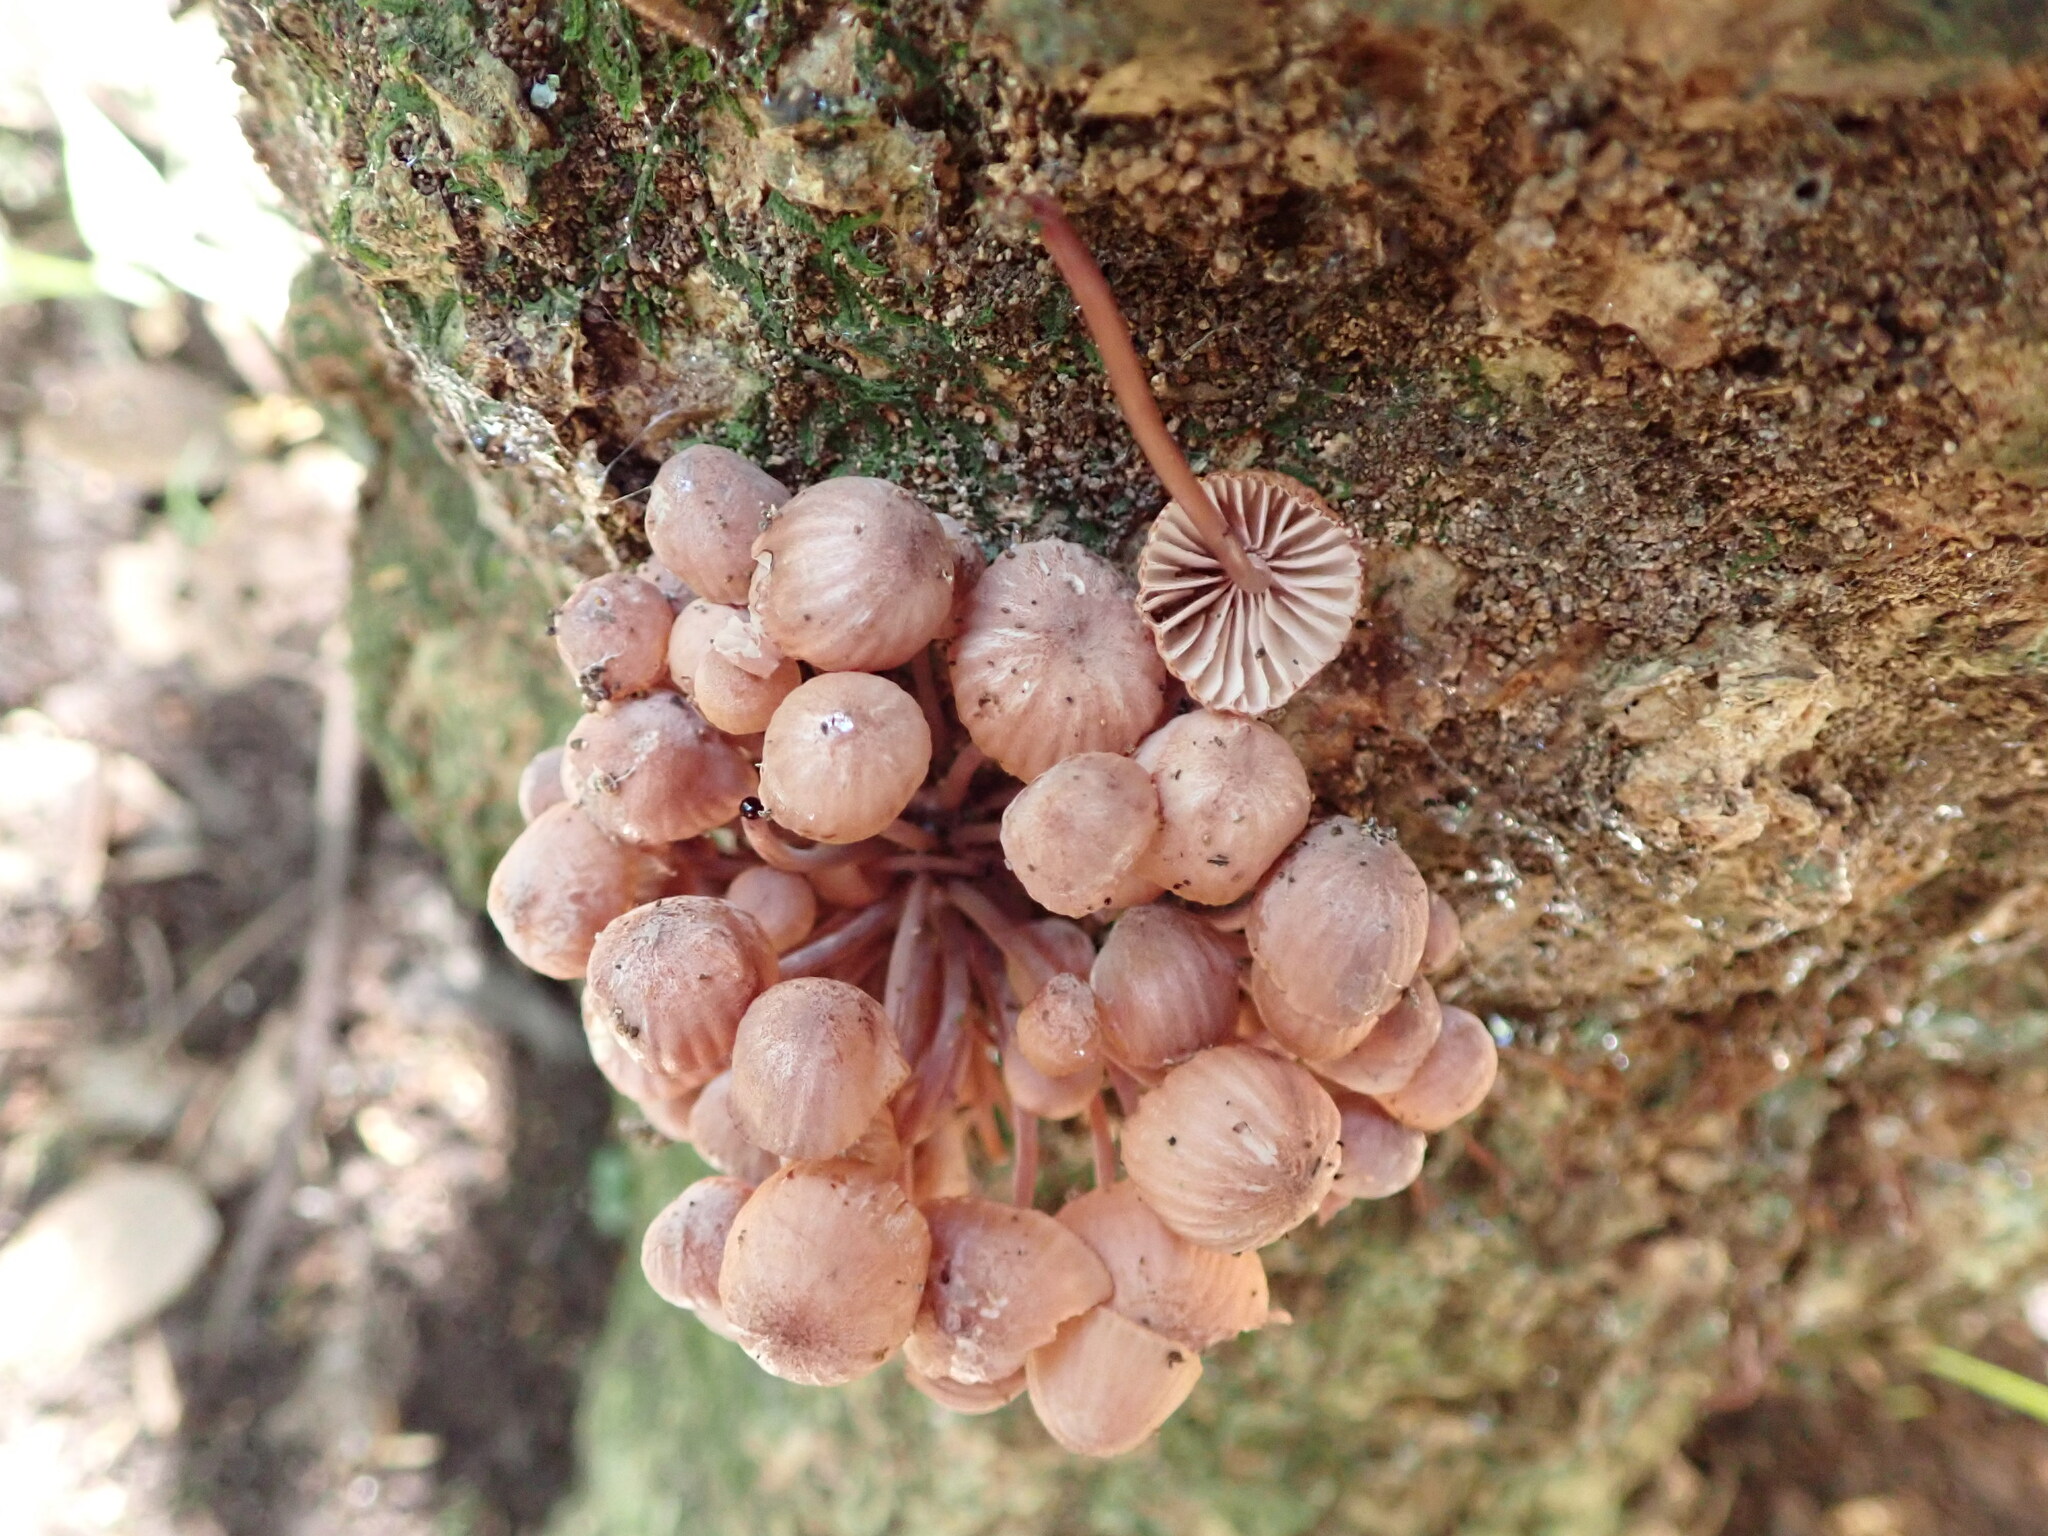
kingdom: Fungi
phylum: Basidiomycota
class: Agaricomycetes
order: Agaricales
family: Mycenaceae
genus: Mycena
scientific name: Mycena mariae
